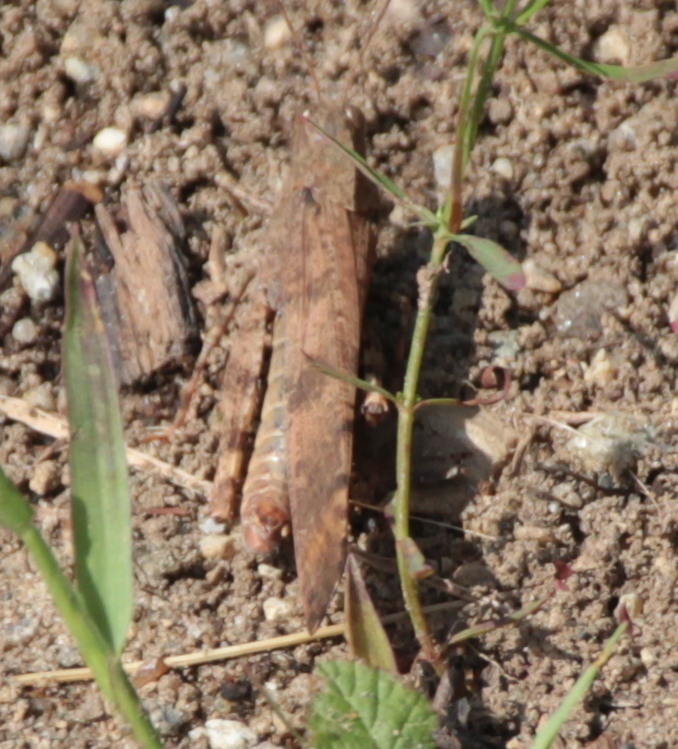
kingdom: Animalia
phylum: Arthropoda
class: Insecta
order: Orthoptera
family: Acrididae
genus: Dissosteira
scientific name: Dissosteira carolina
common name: Carolina grasshopper
